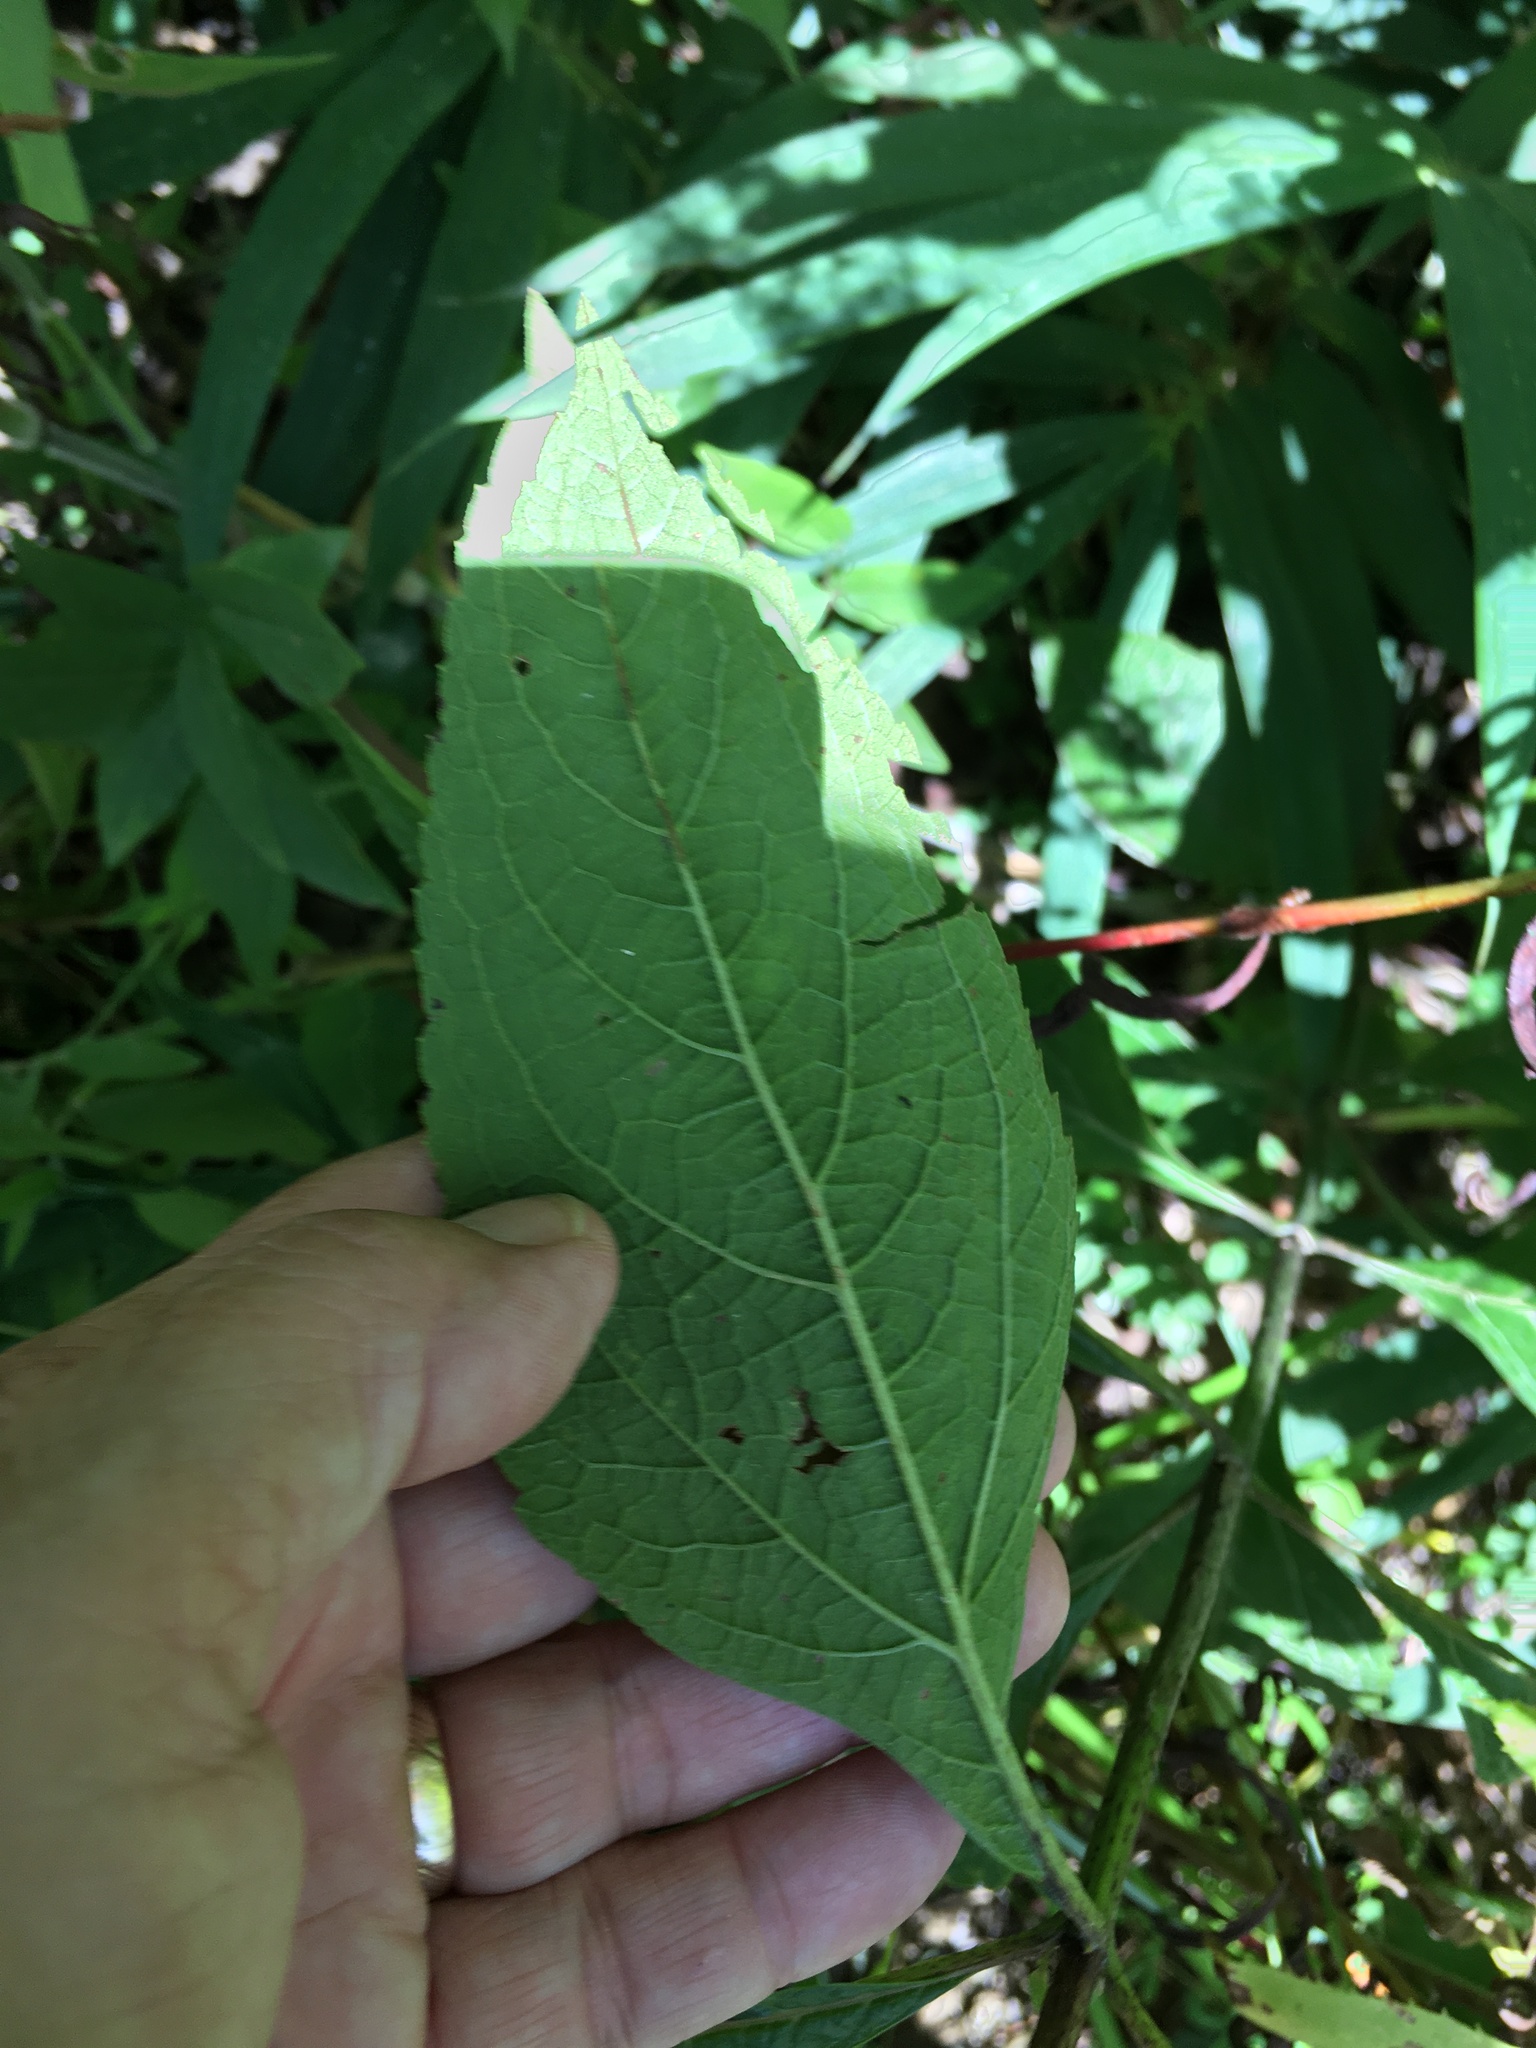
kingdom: Plantae
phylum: Tracheophyta
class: Magnoliopsida
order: Asterales
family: Asteraceae
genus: Eutrochium
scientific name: Eutrochium dubium
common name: Coastal plain joe pye weed
